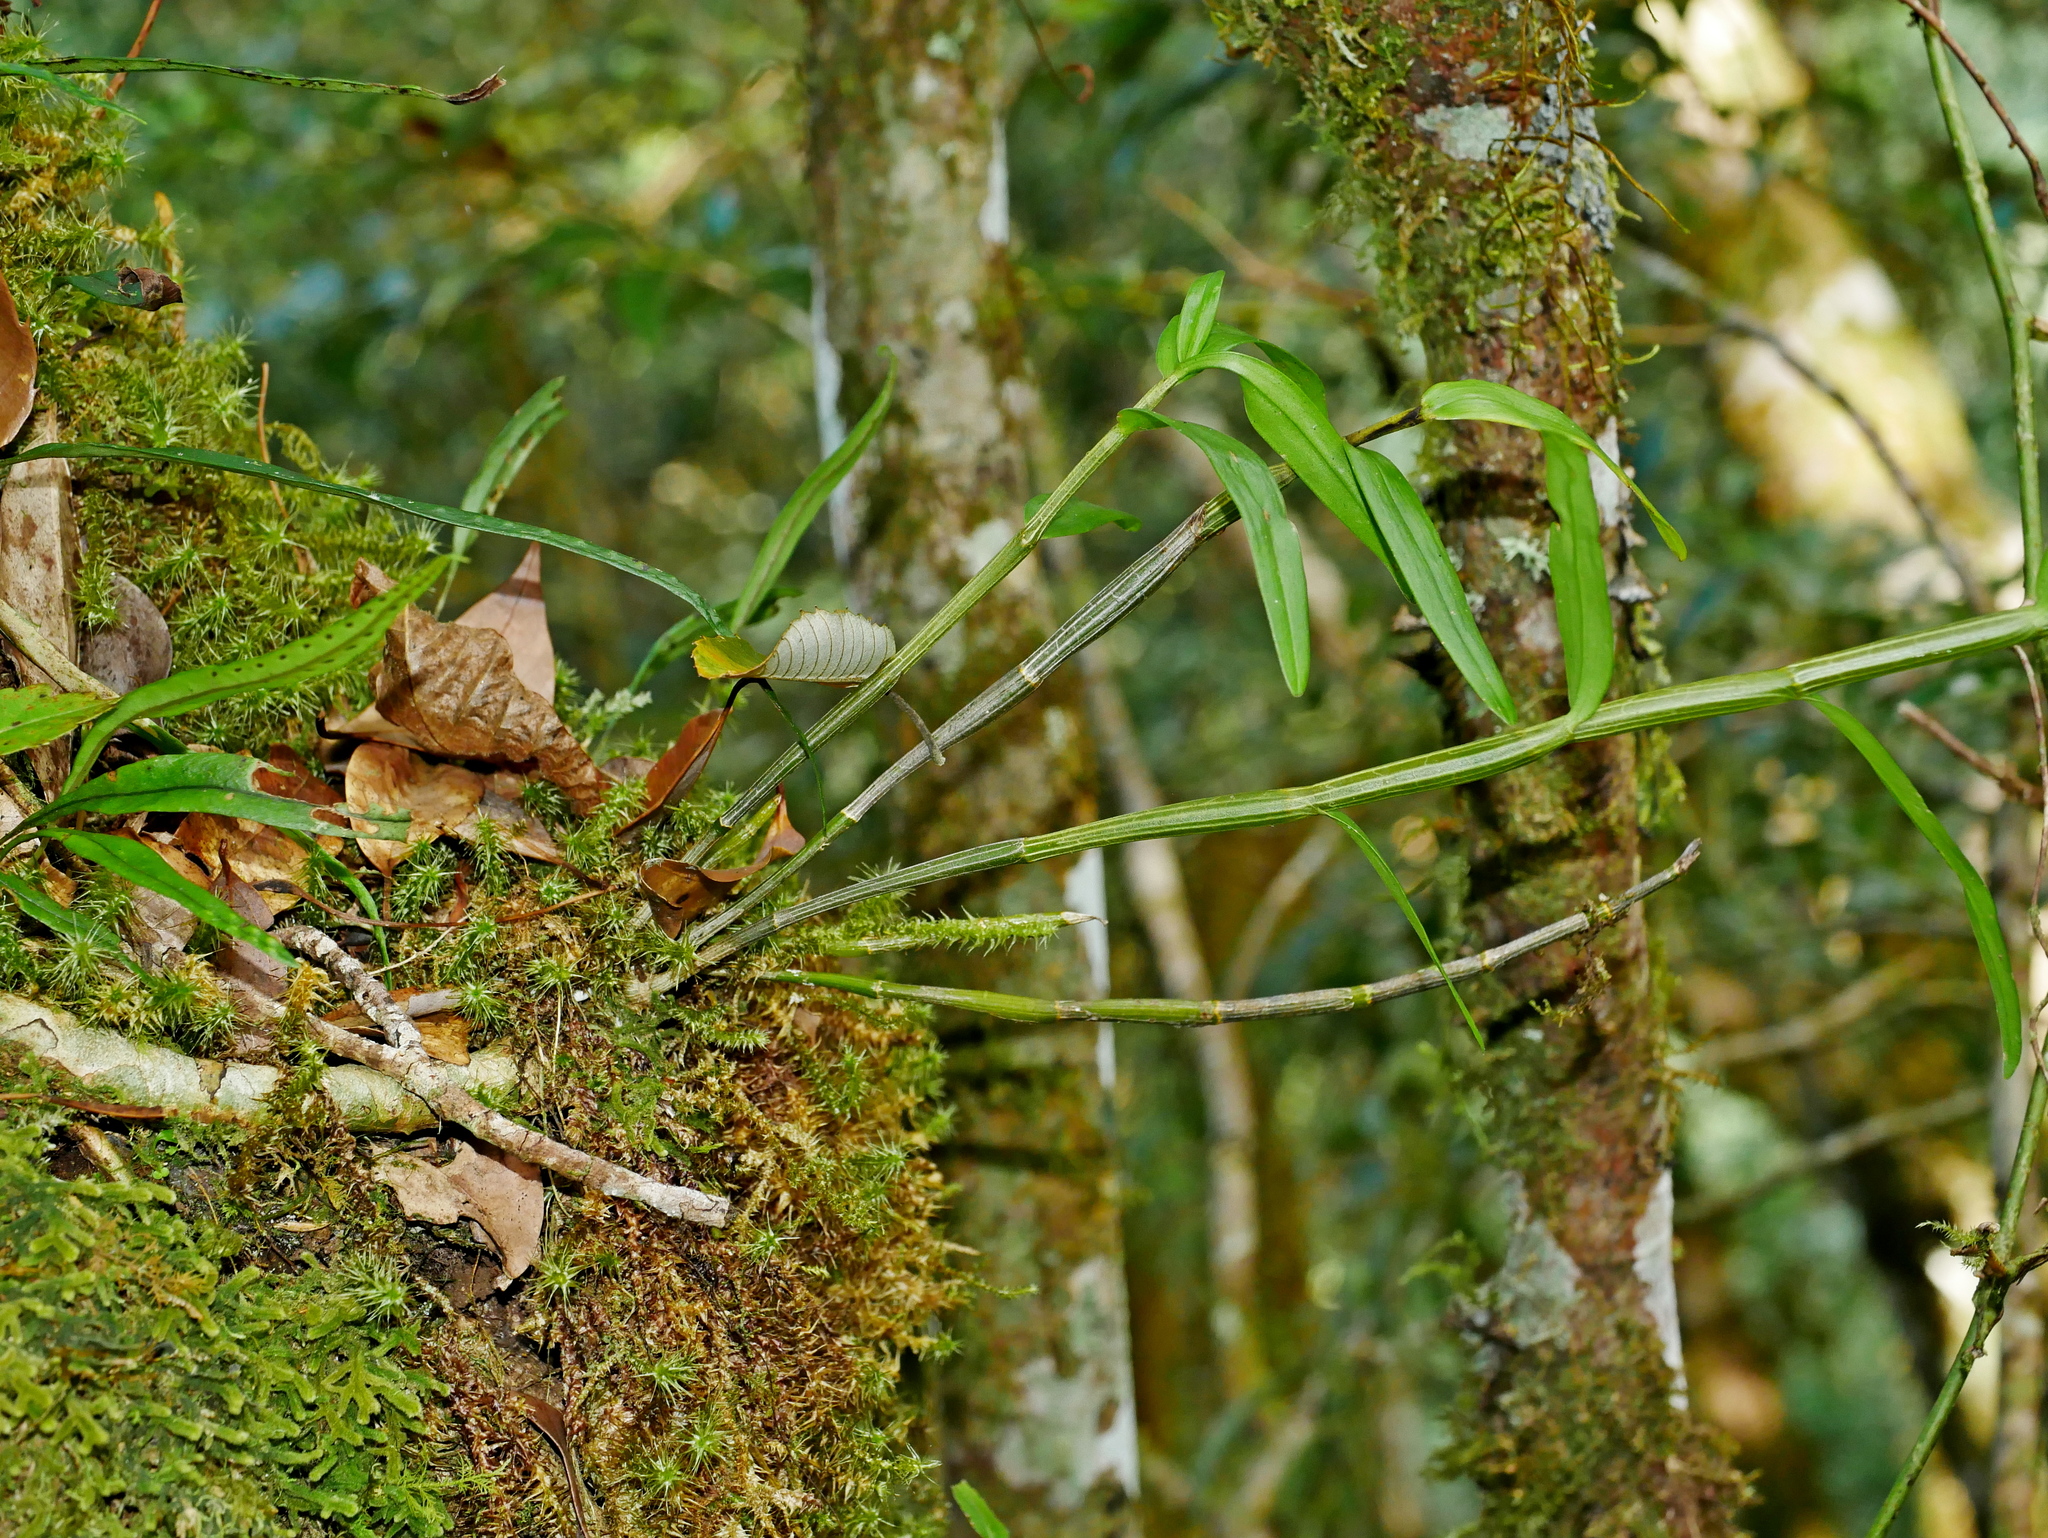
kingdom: Plantae
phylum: Tracheophyta
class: Liliopsida
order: Asparagales
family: Orchidaceae
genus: Dendrobium
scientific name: Dendrobium moniliforme
